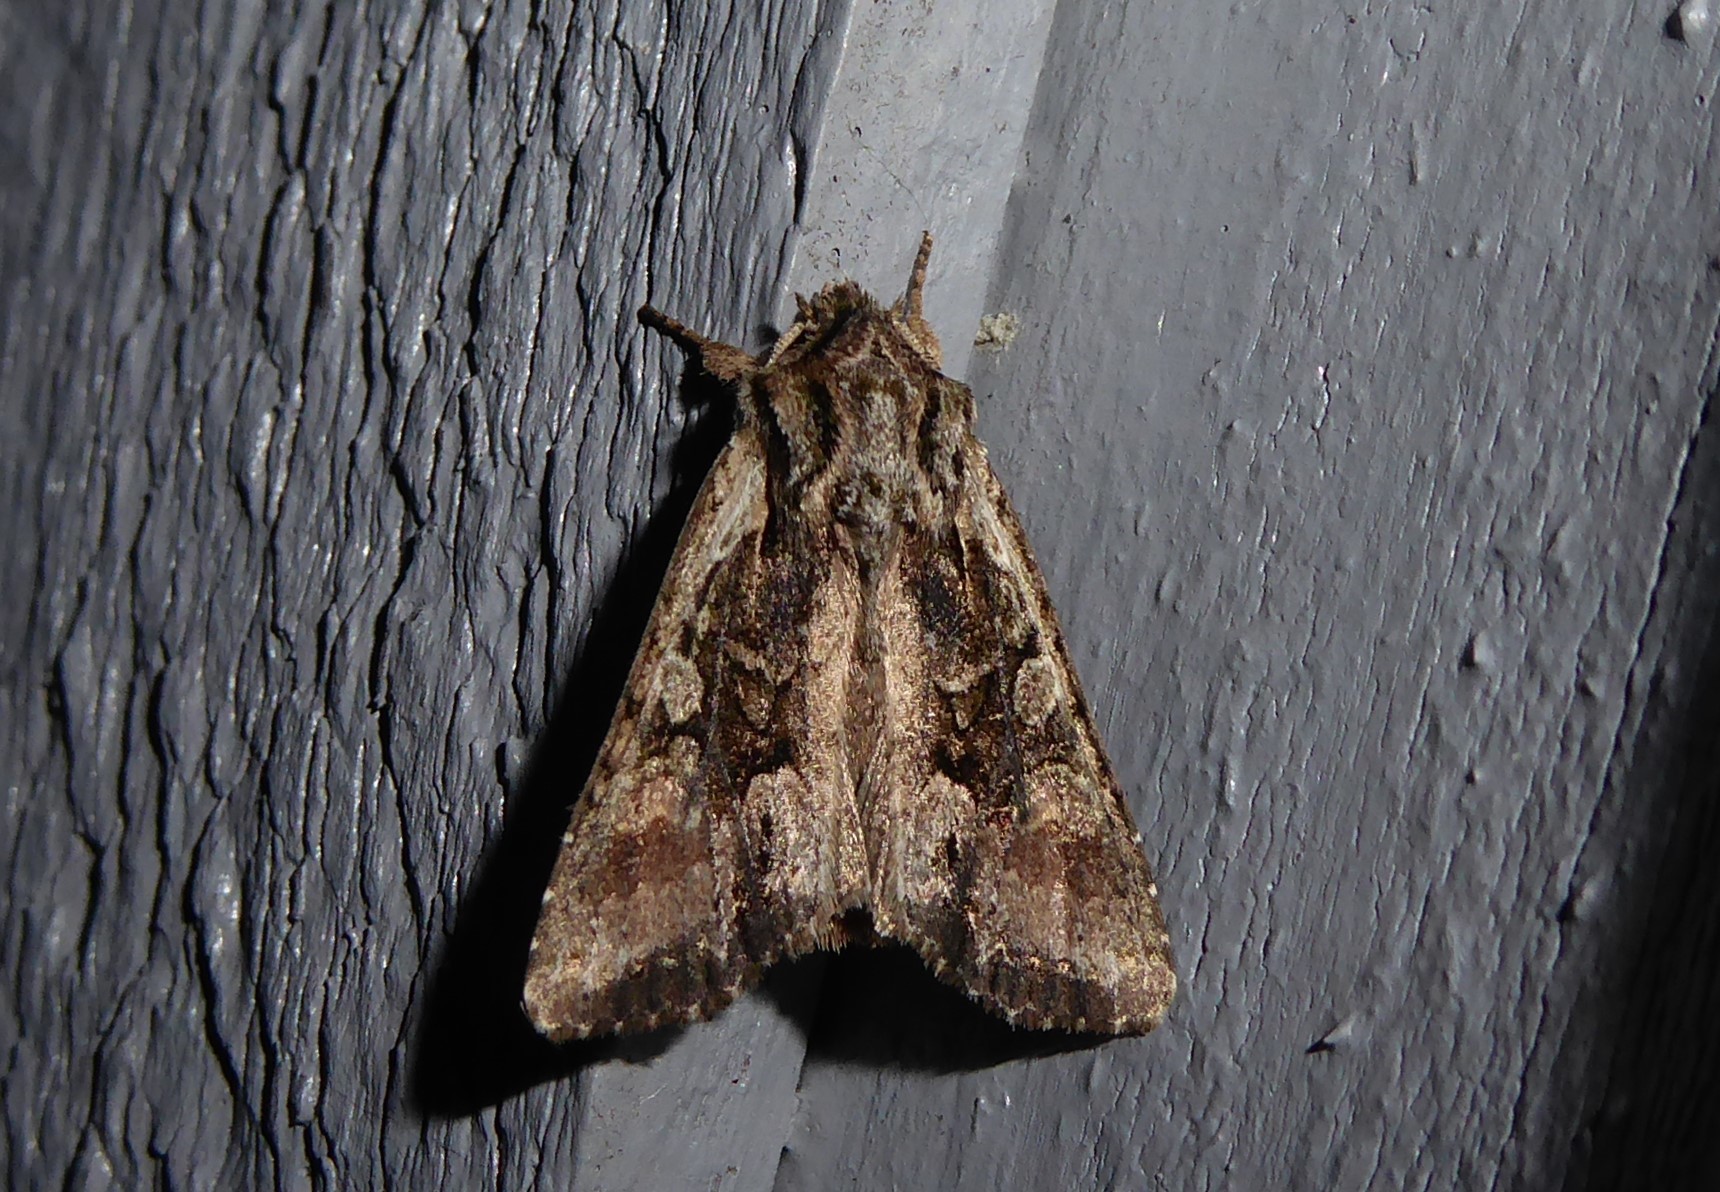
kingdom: Animalia
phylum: Arthropoda
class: Insecta
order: Lepidoptera
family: Noctuidae
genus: Ichneutica
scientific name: Ichneutica mutans
